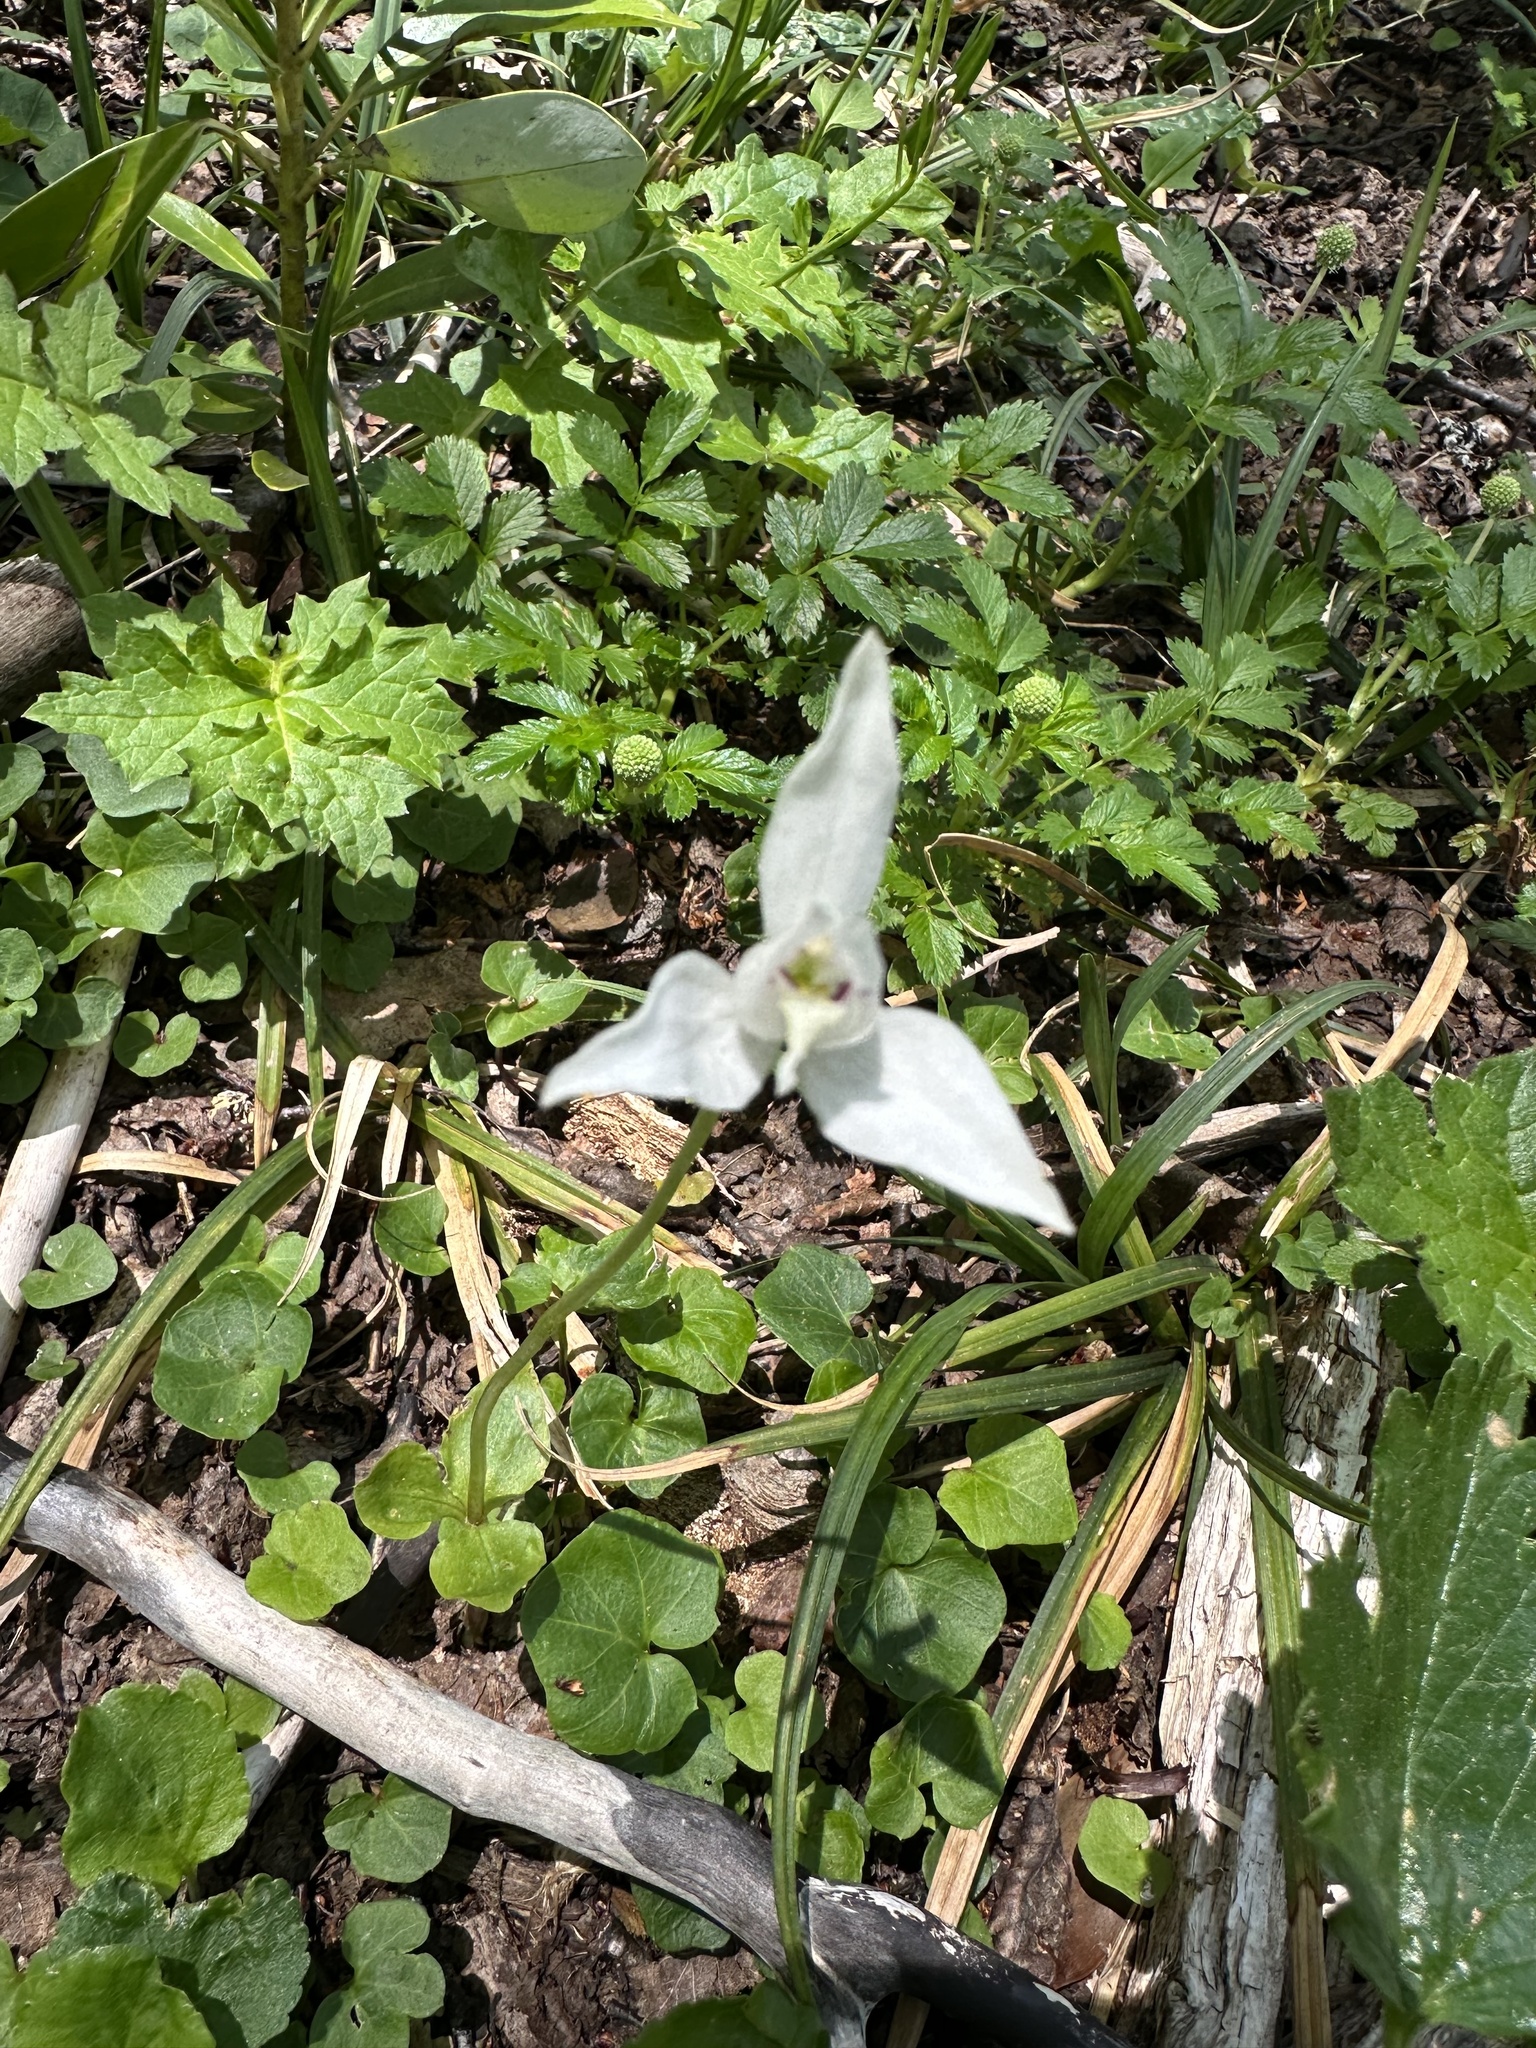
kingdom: Plantae
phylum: Tracheophyta
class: Liliopsida
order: Asparagales
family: Orchidaceae
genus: Codonorchis
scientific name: Codonorchis lessonii
